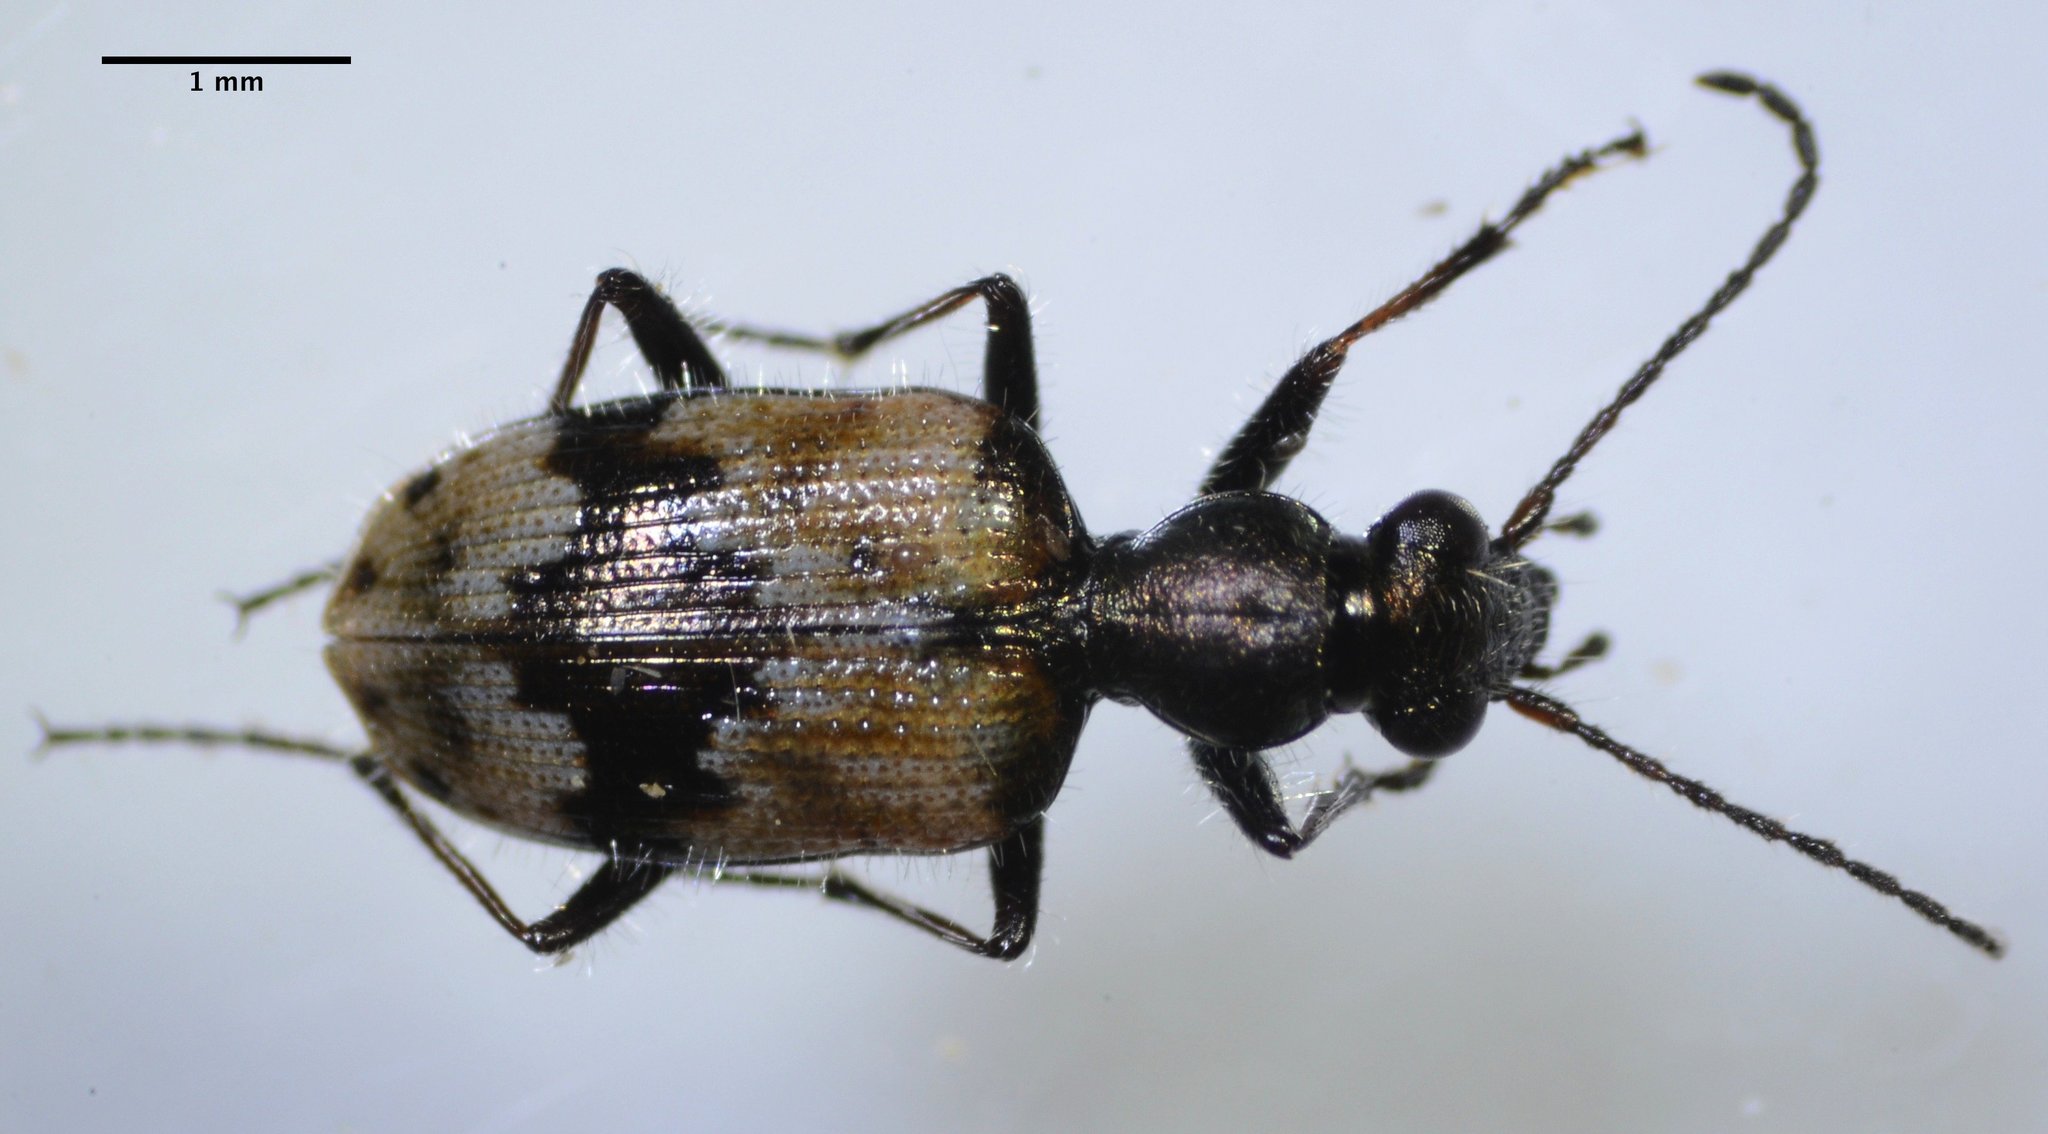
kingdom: Animalia
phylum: Arthropoda
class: Insecta
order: Coleoptera
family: Carabidae
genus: Lachnophorus
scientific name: Lachnophorus elegantulus
